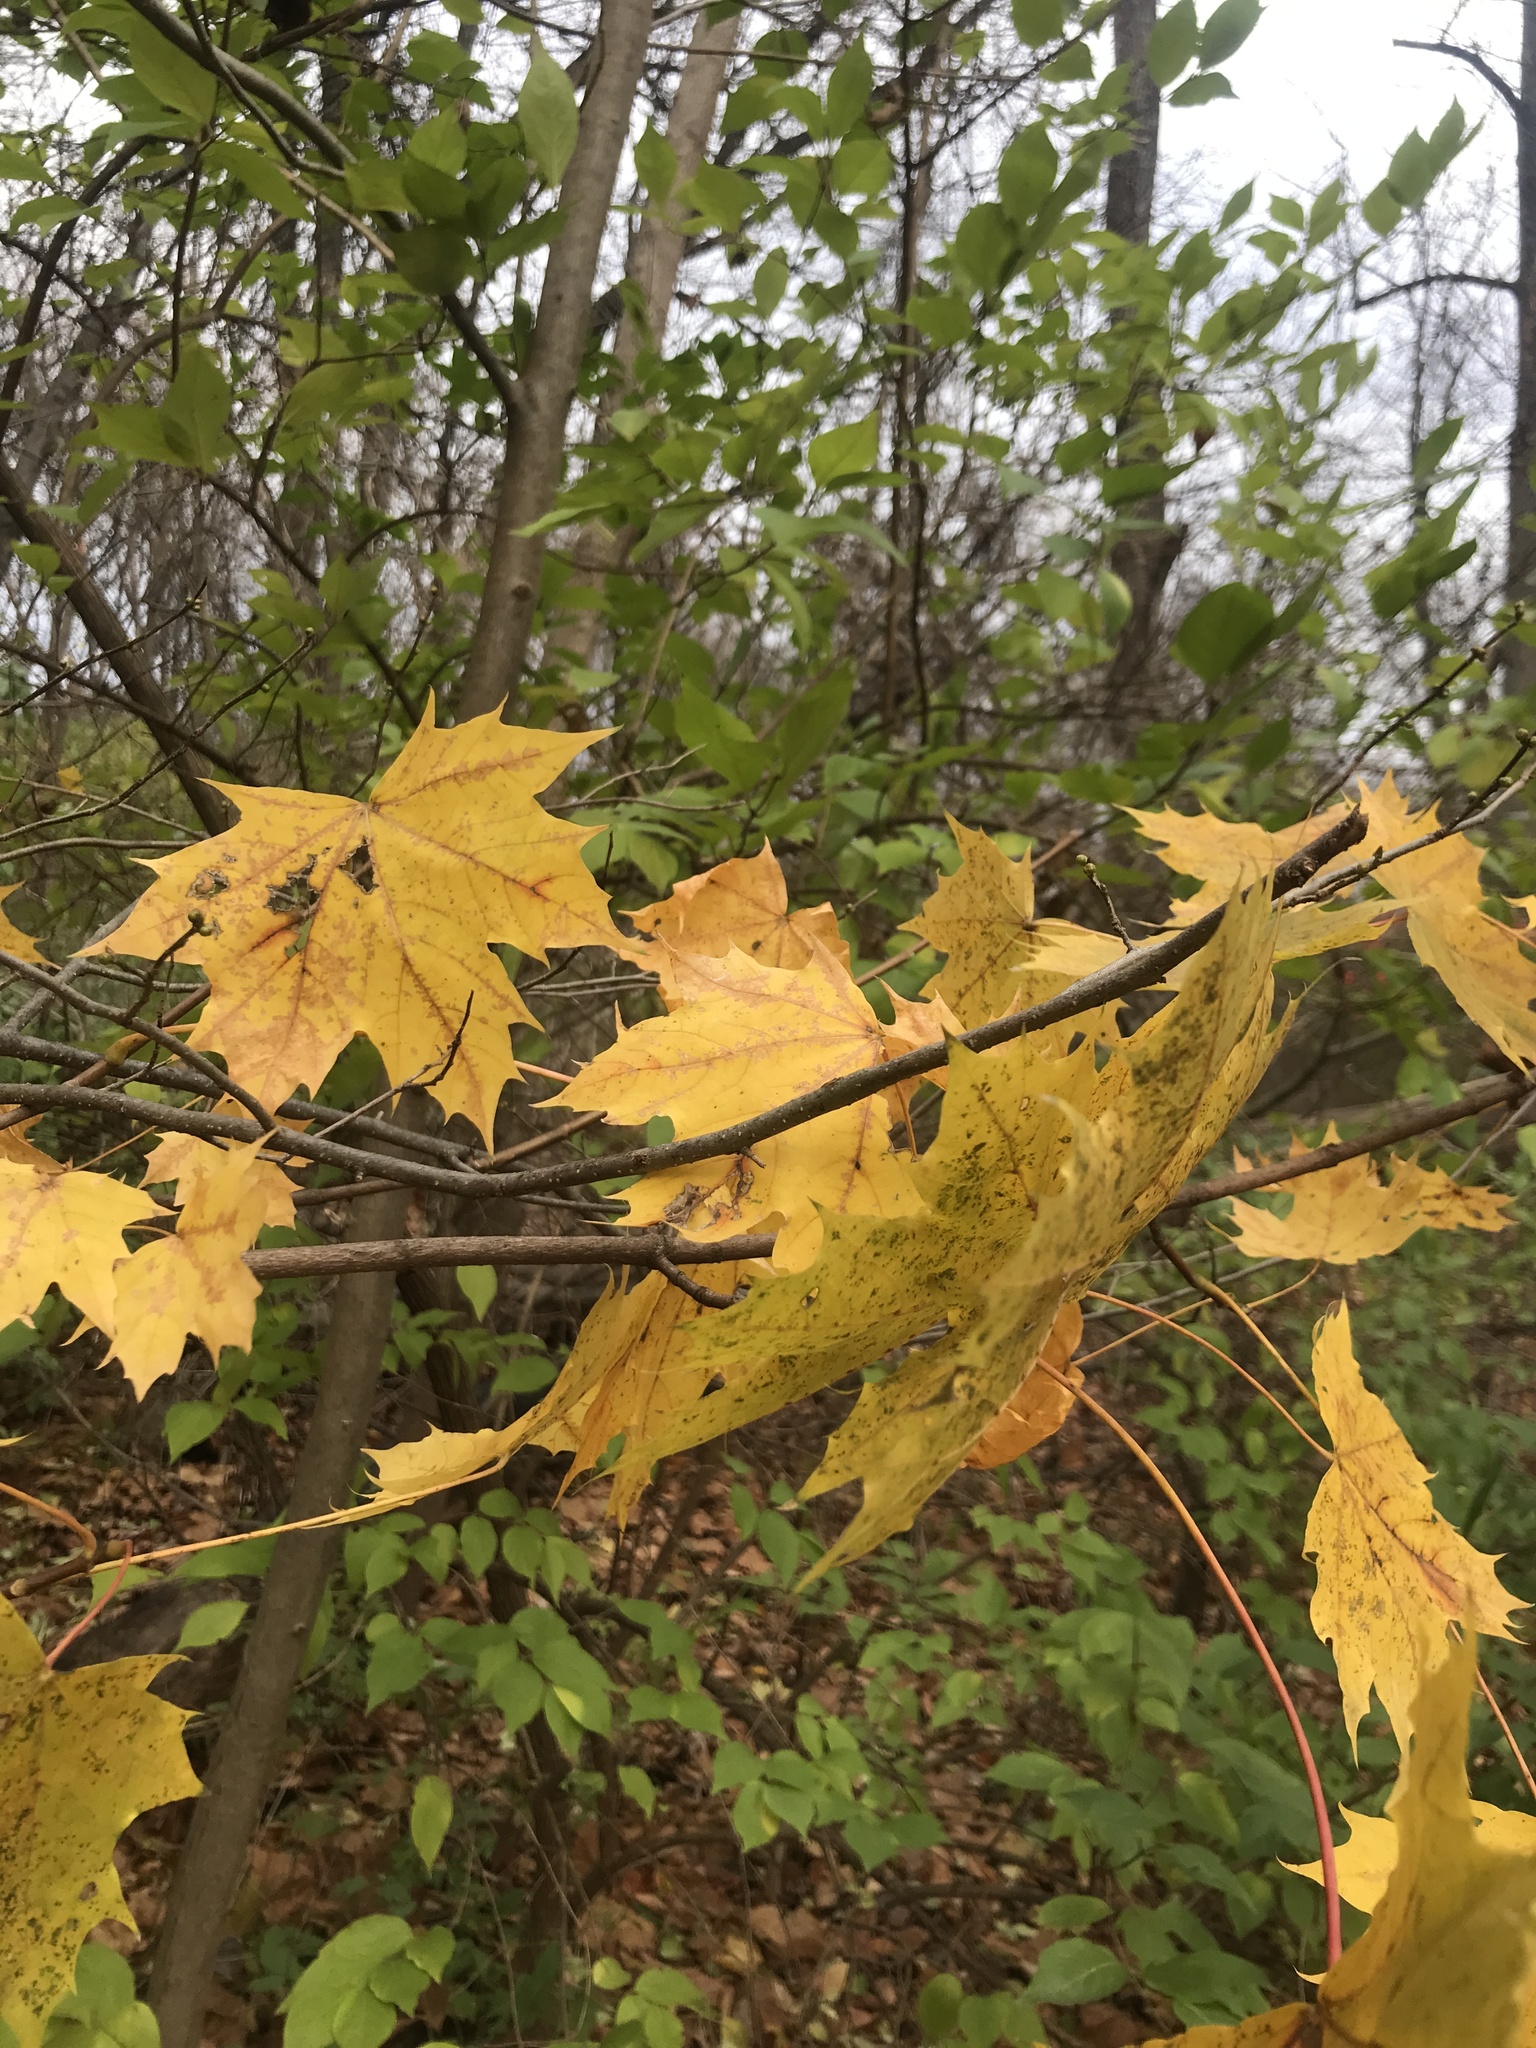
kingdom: Plantae
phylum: Tracheophyta
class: Magnoliopsida
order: Sapindales
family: Sapindaceae
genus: Acer
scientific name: Acer platanoides
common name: Norway maple
